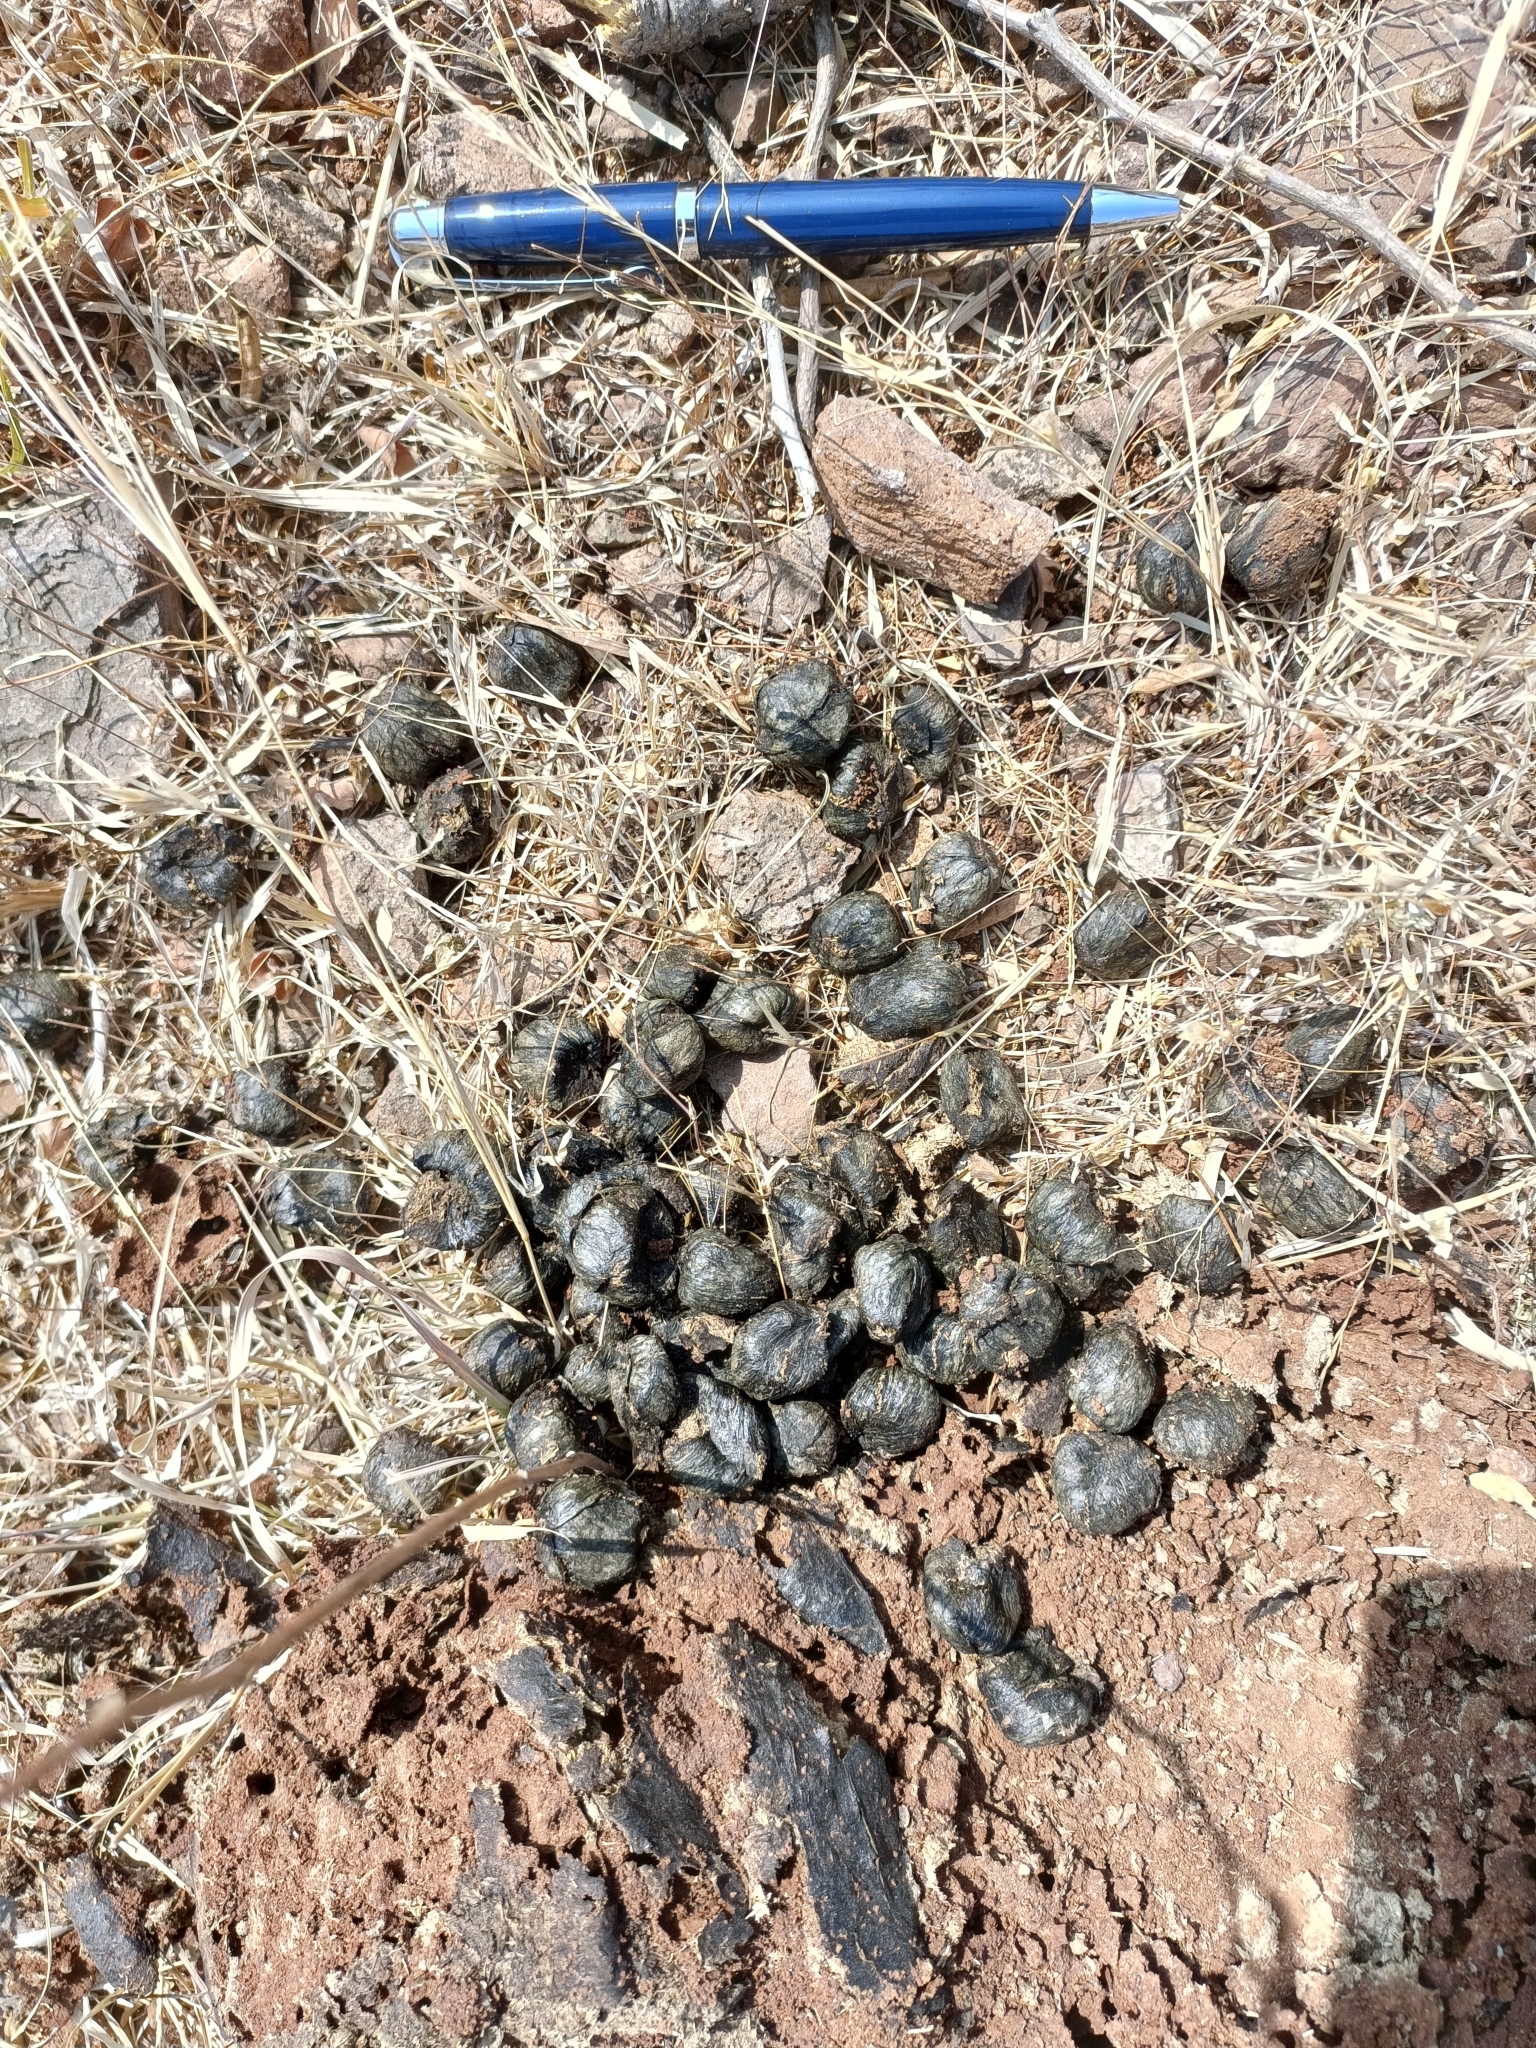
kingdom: Animalia
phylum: Chordata
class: Mammalia
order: Artiodactyla
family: Bovidae
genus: Boselaphus
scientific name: Boselaphus tragocamelus
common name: Nilgai
